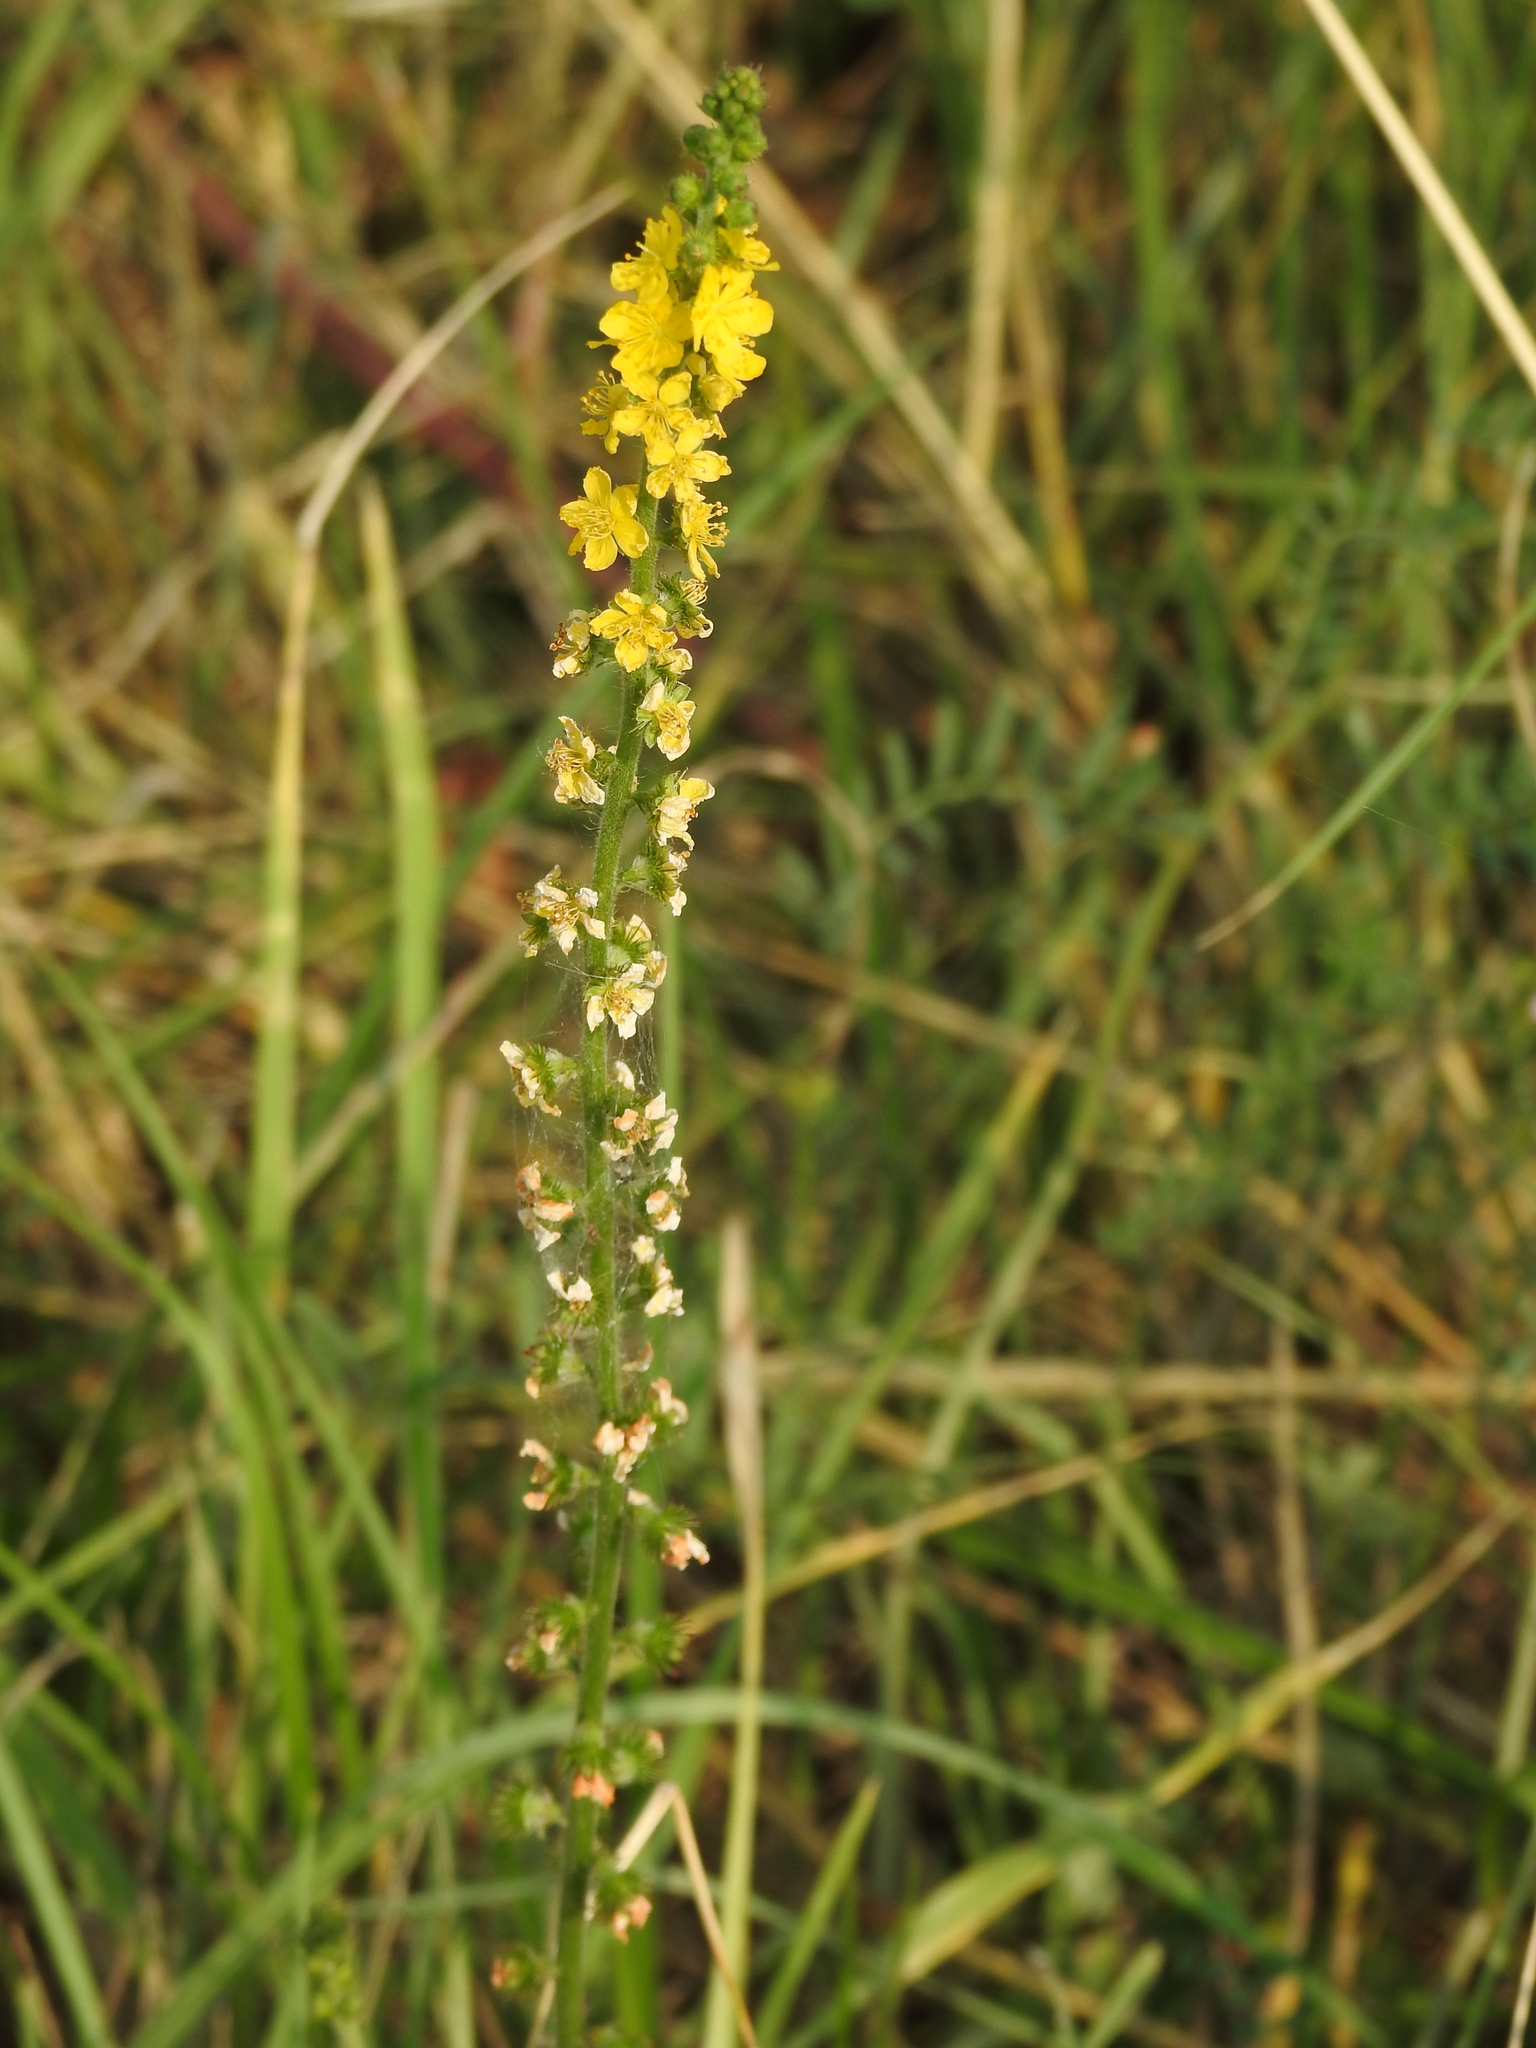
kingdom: Plantae
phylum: Tracheophyta
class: Magnoliopsida
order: Rosales
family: Rosaceae
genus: Agrimonia
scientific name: Agrimonia eupatoria
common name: Agrimony
